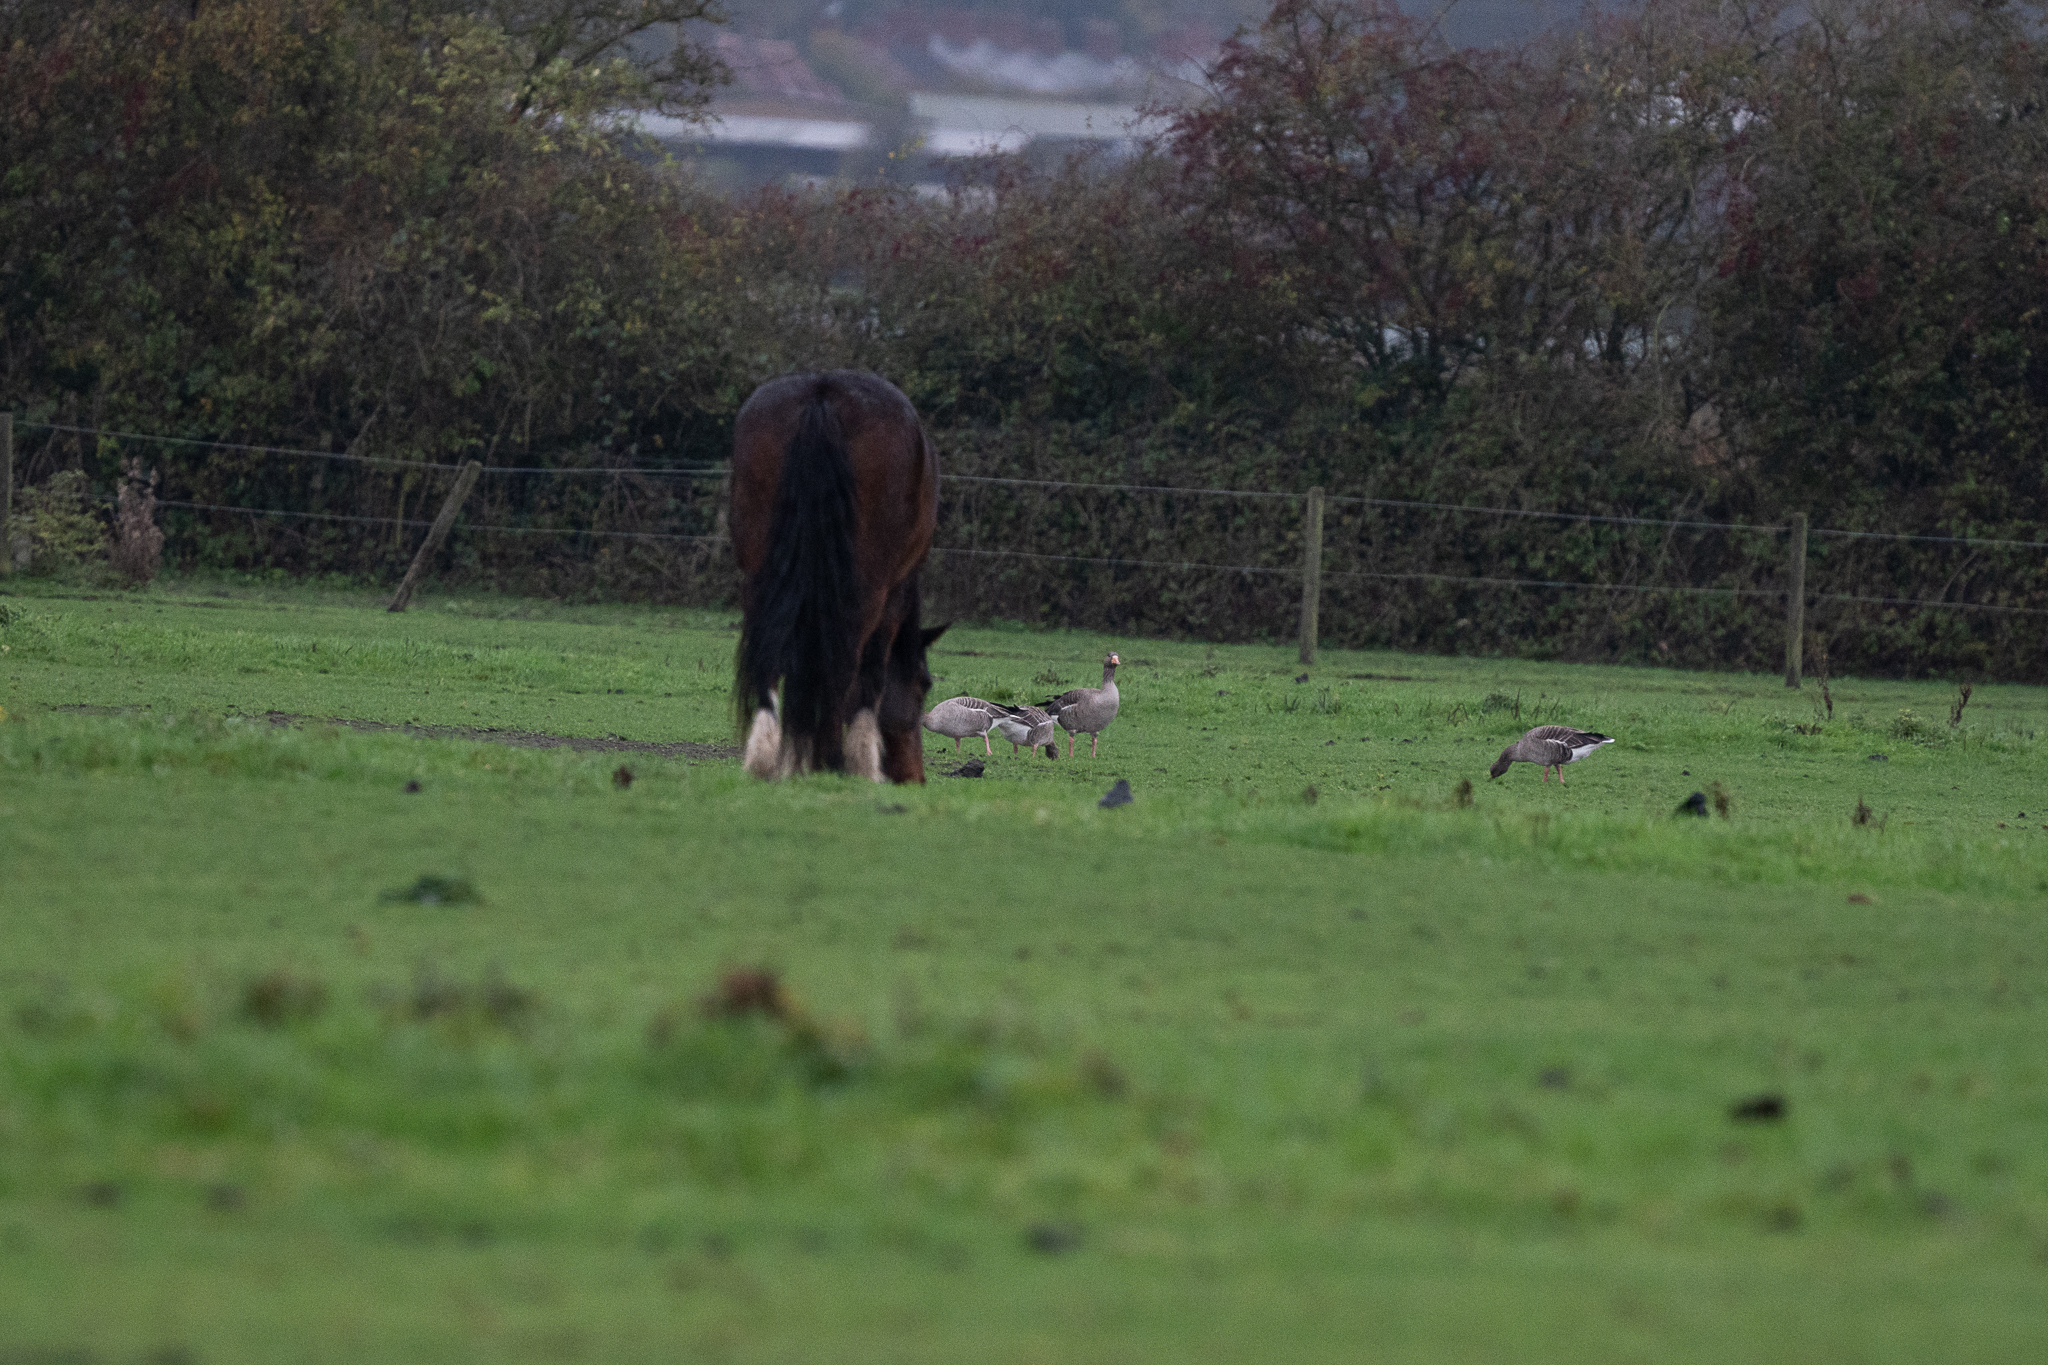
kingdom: Animalia
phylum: Chordata
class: Aves
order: Anseriformes
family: Anatidae
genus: Anser
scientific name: Anser anser
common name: Greylag goose
